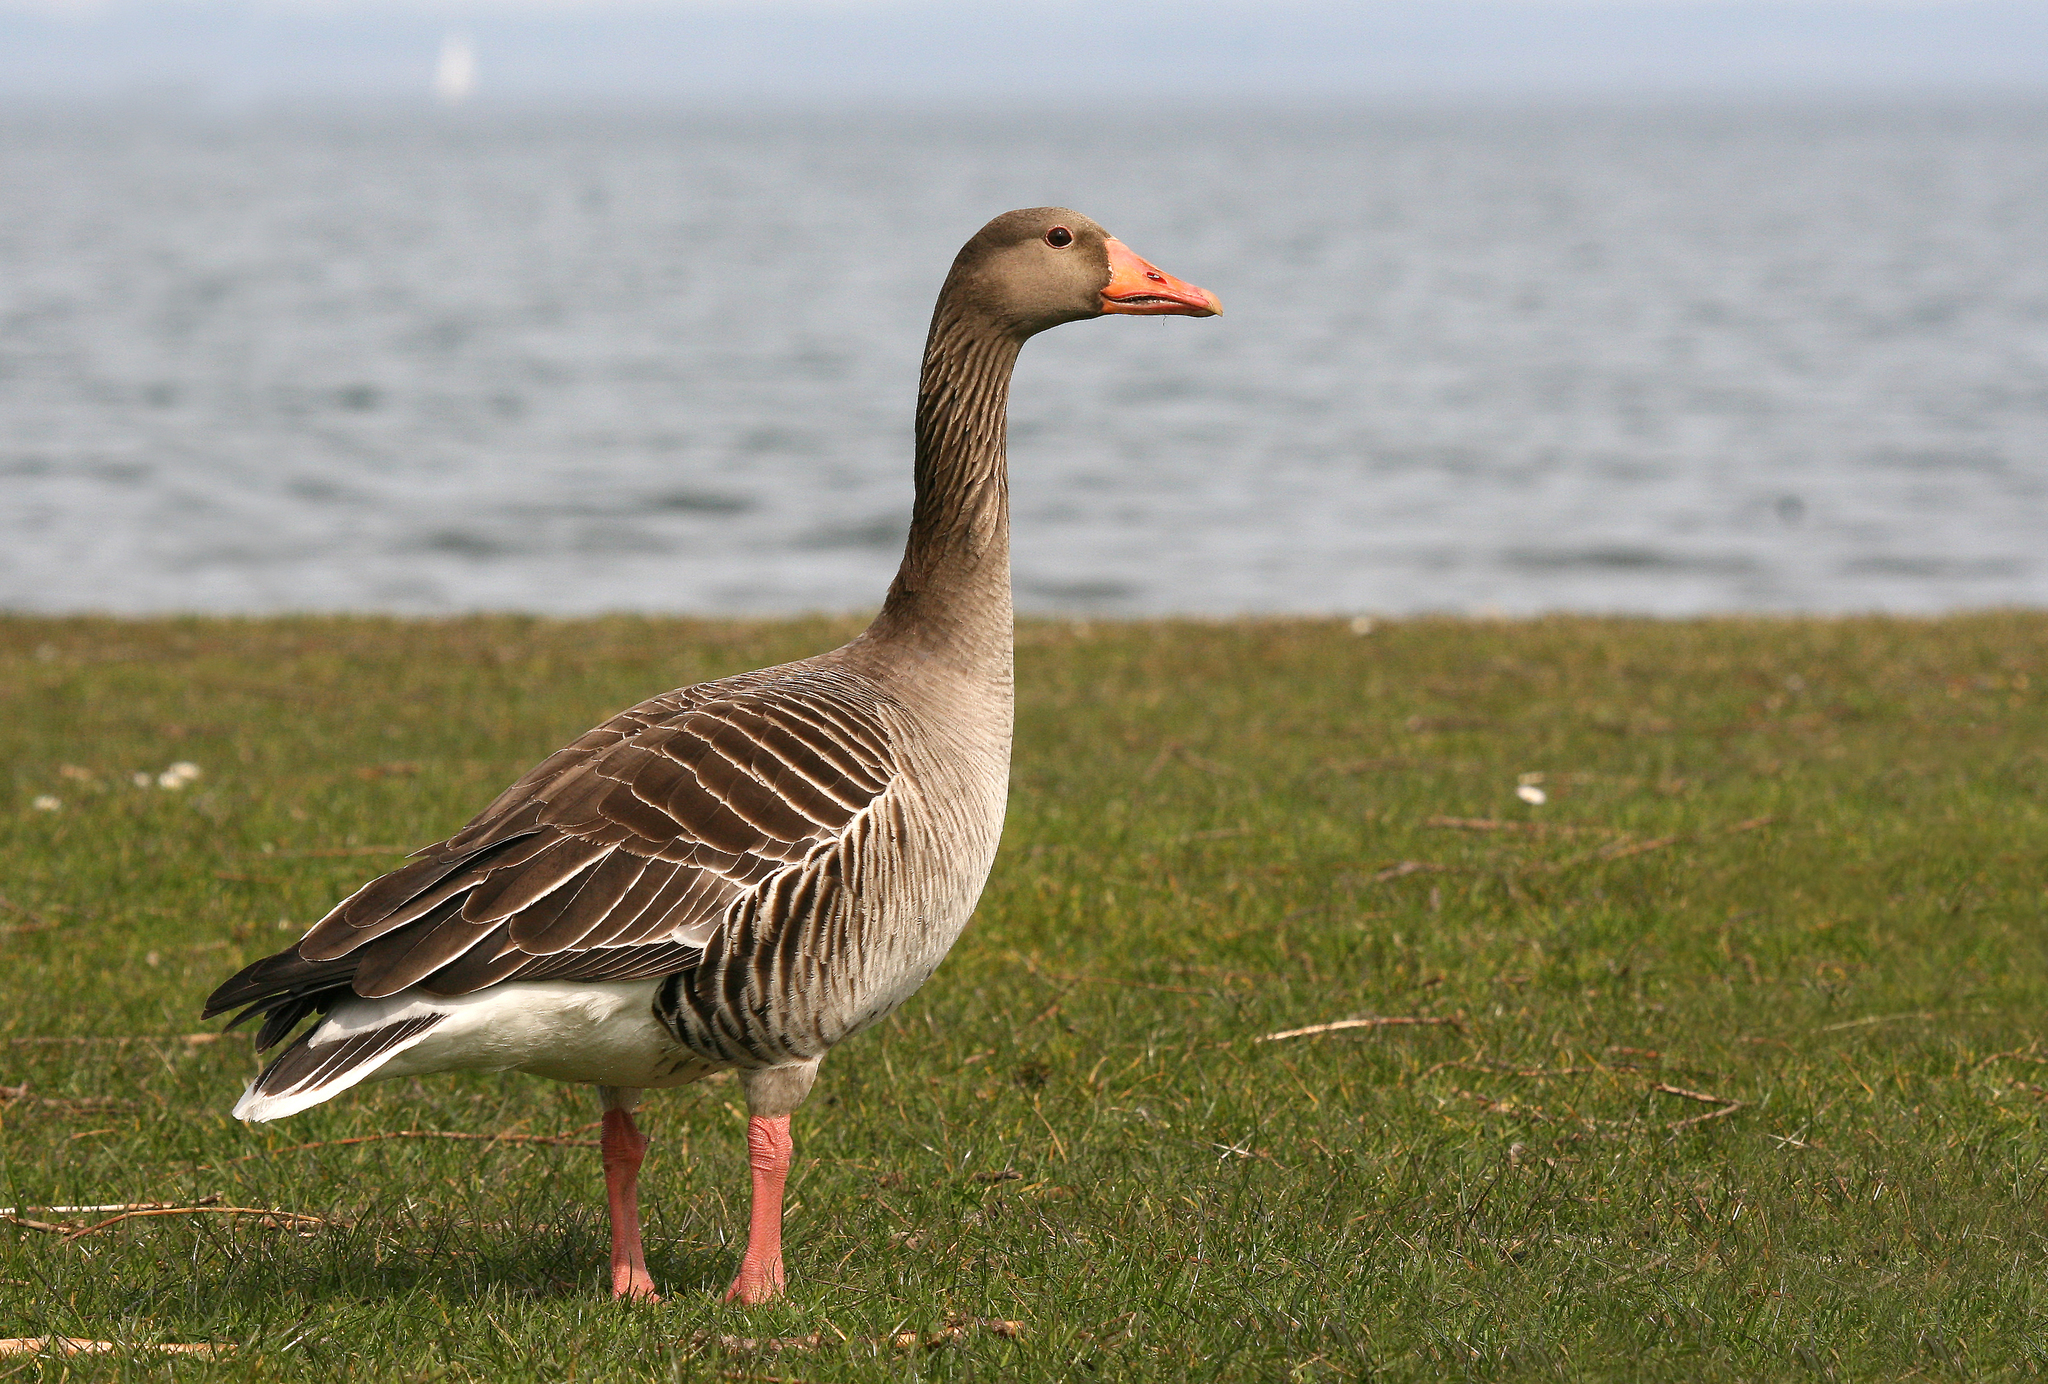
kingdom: Animalia
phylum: Chordata
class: Aves
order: Anseriformes
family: Anatidae
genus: Anser
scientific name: Anser anser
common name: Greylag goose
